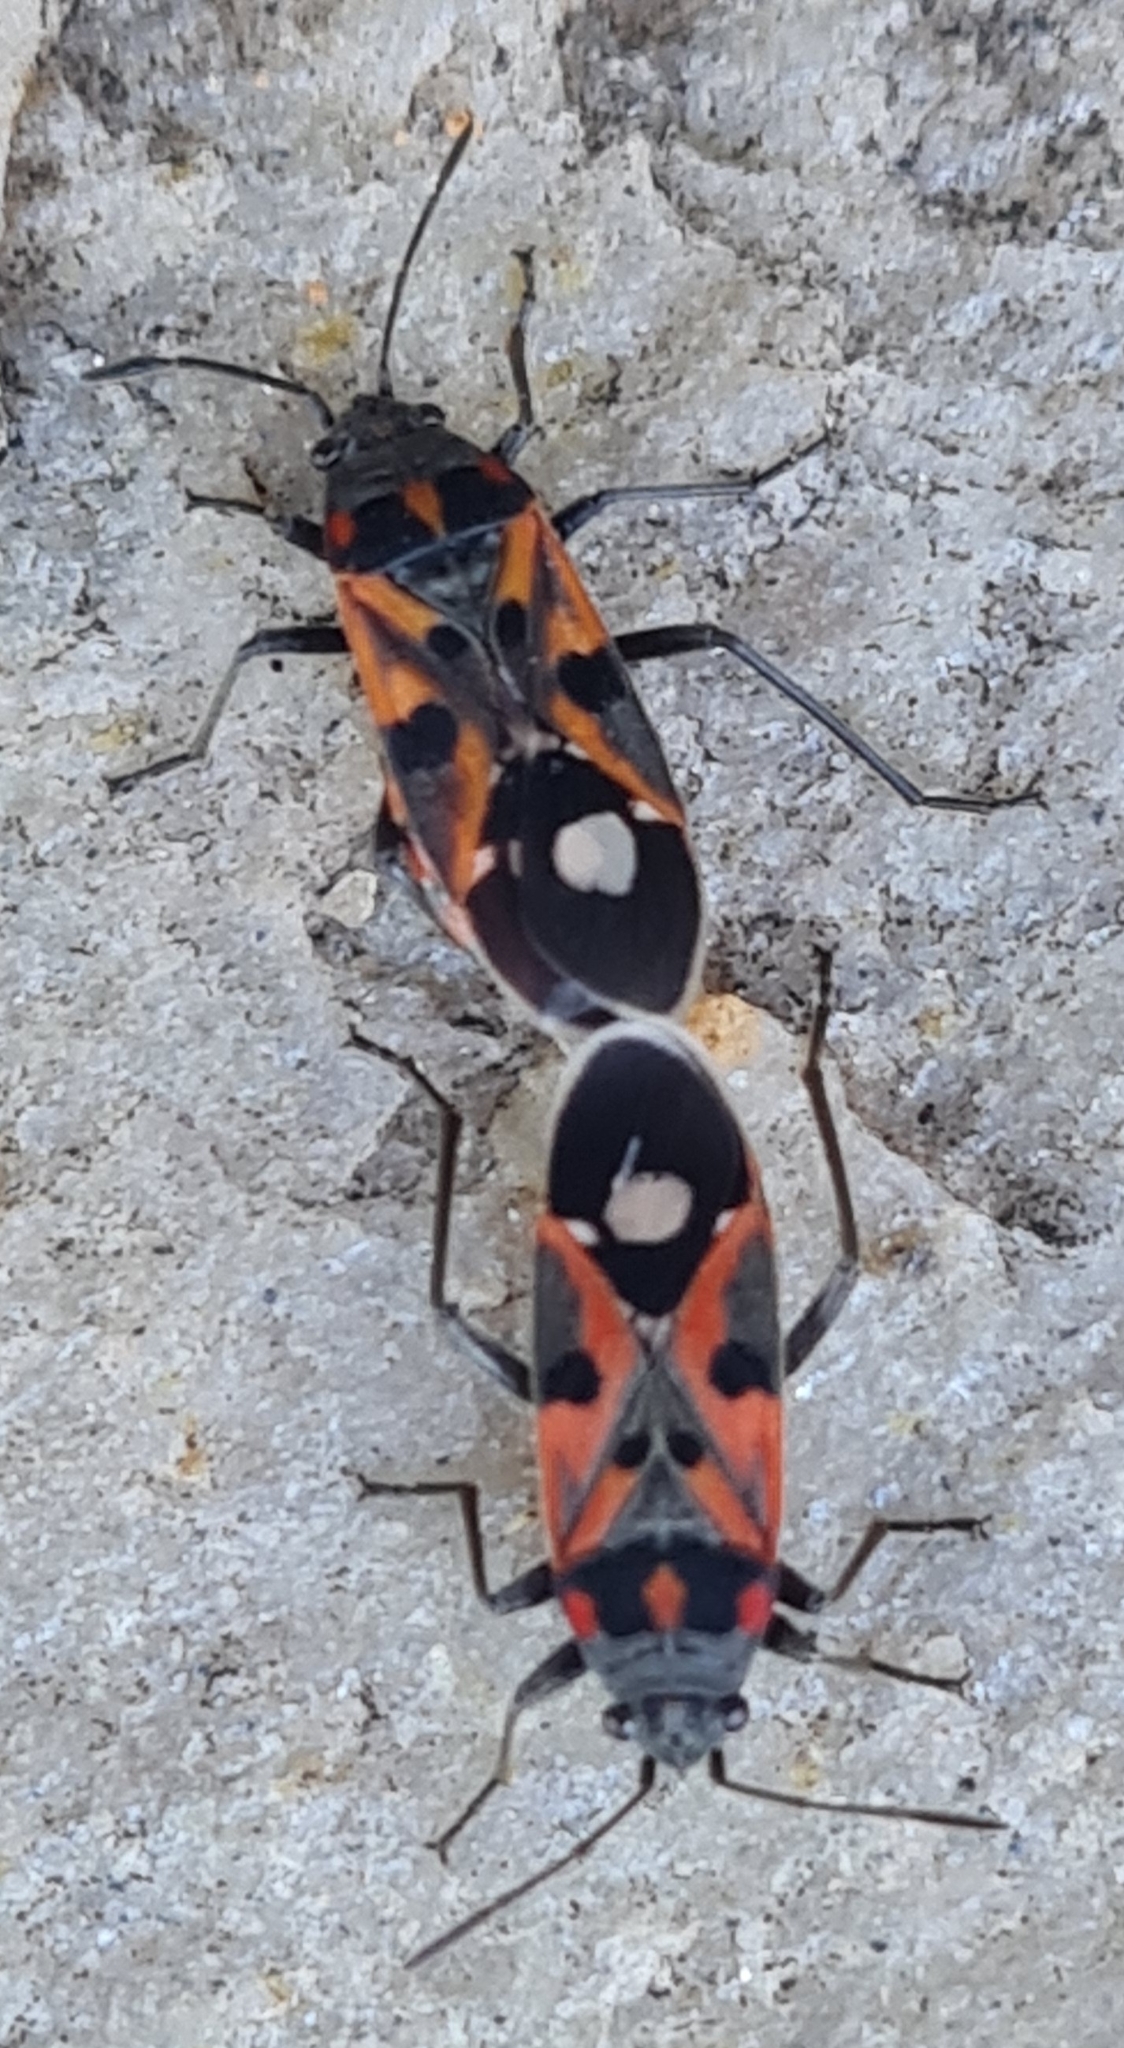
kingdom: Animalia
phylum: Arthropoda
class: Insecta
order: Hemiptera
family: Lygaeidae
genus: Lygaeus
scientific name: Lygaeus alboornatus
